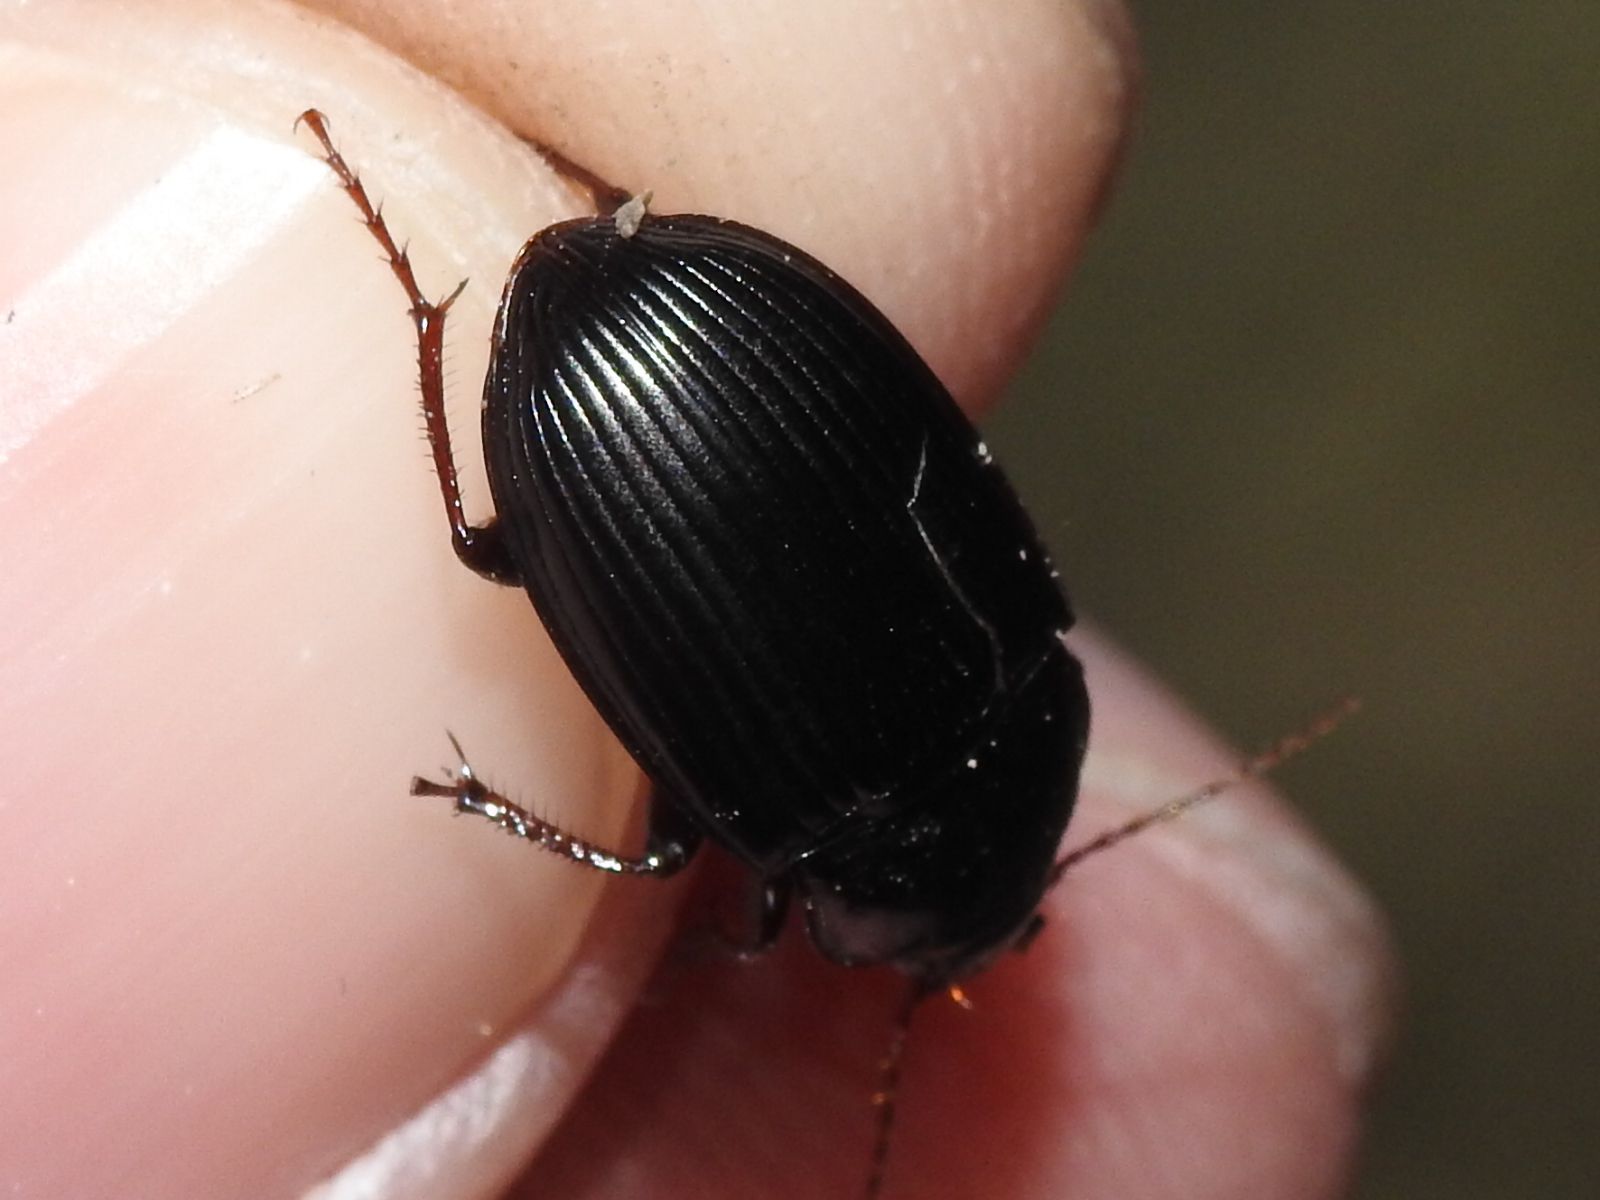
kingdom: Animalia
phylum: Arthropoda
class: Insecta
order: Coleoptera
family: Carabidae
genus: Amara
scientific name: Amara obesa
